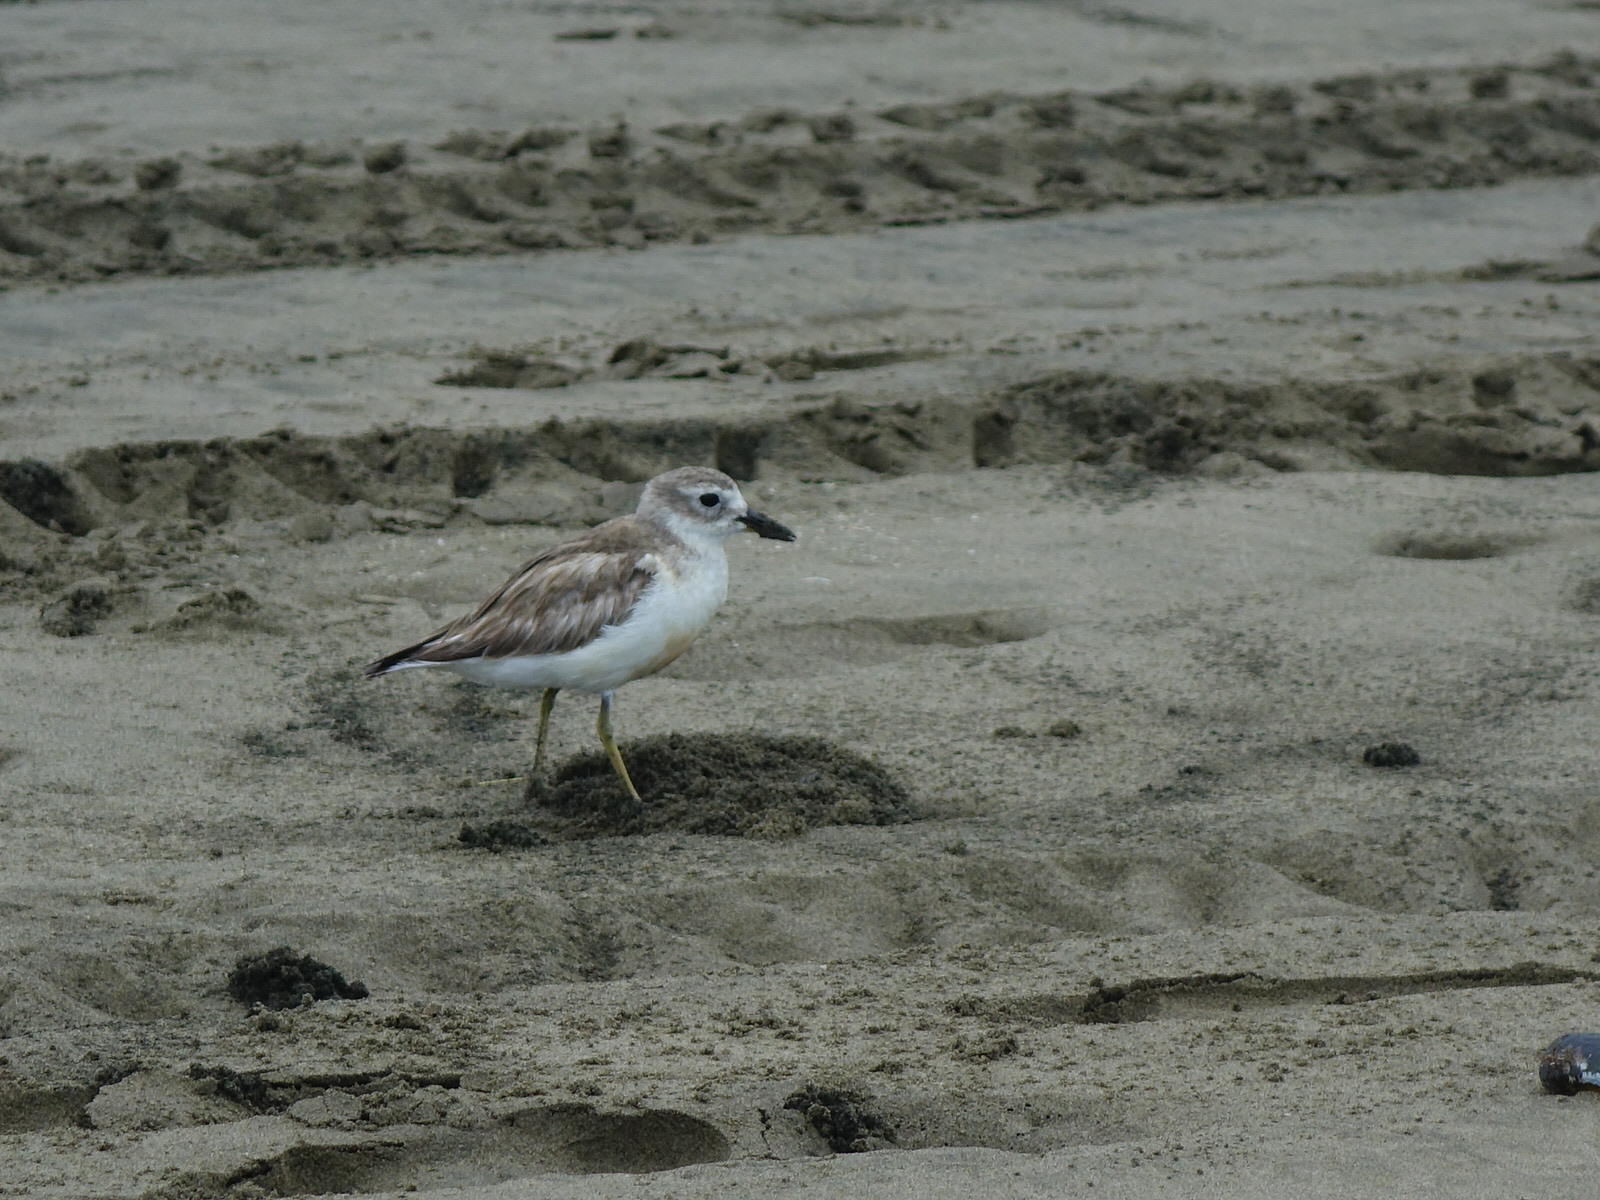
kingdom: Animalia
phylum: Chordata
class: Aves
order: Charadriiformes
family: Charadriidae
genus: Anarhynchus
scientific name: Anarhynchus
